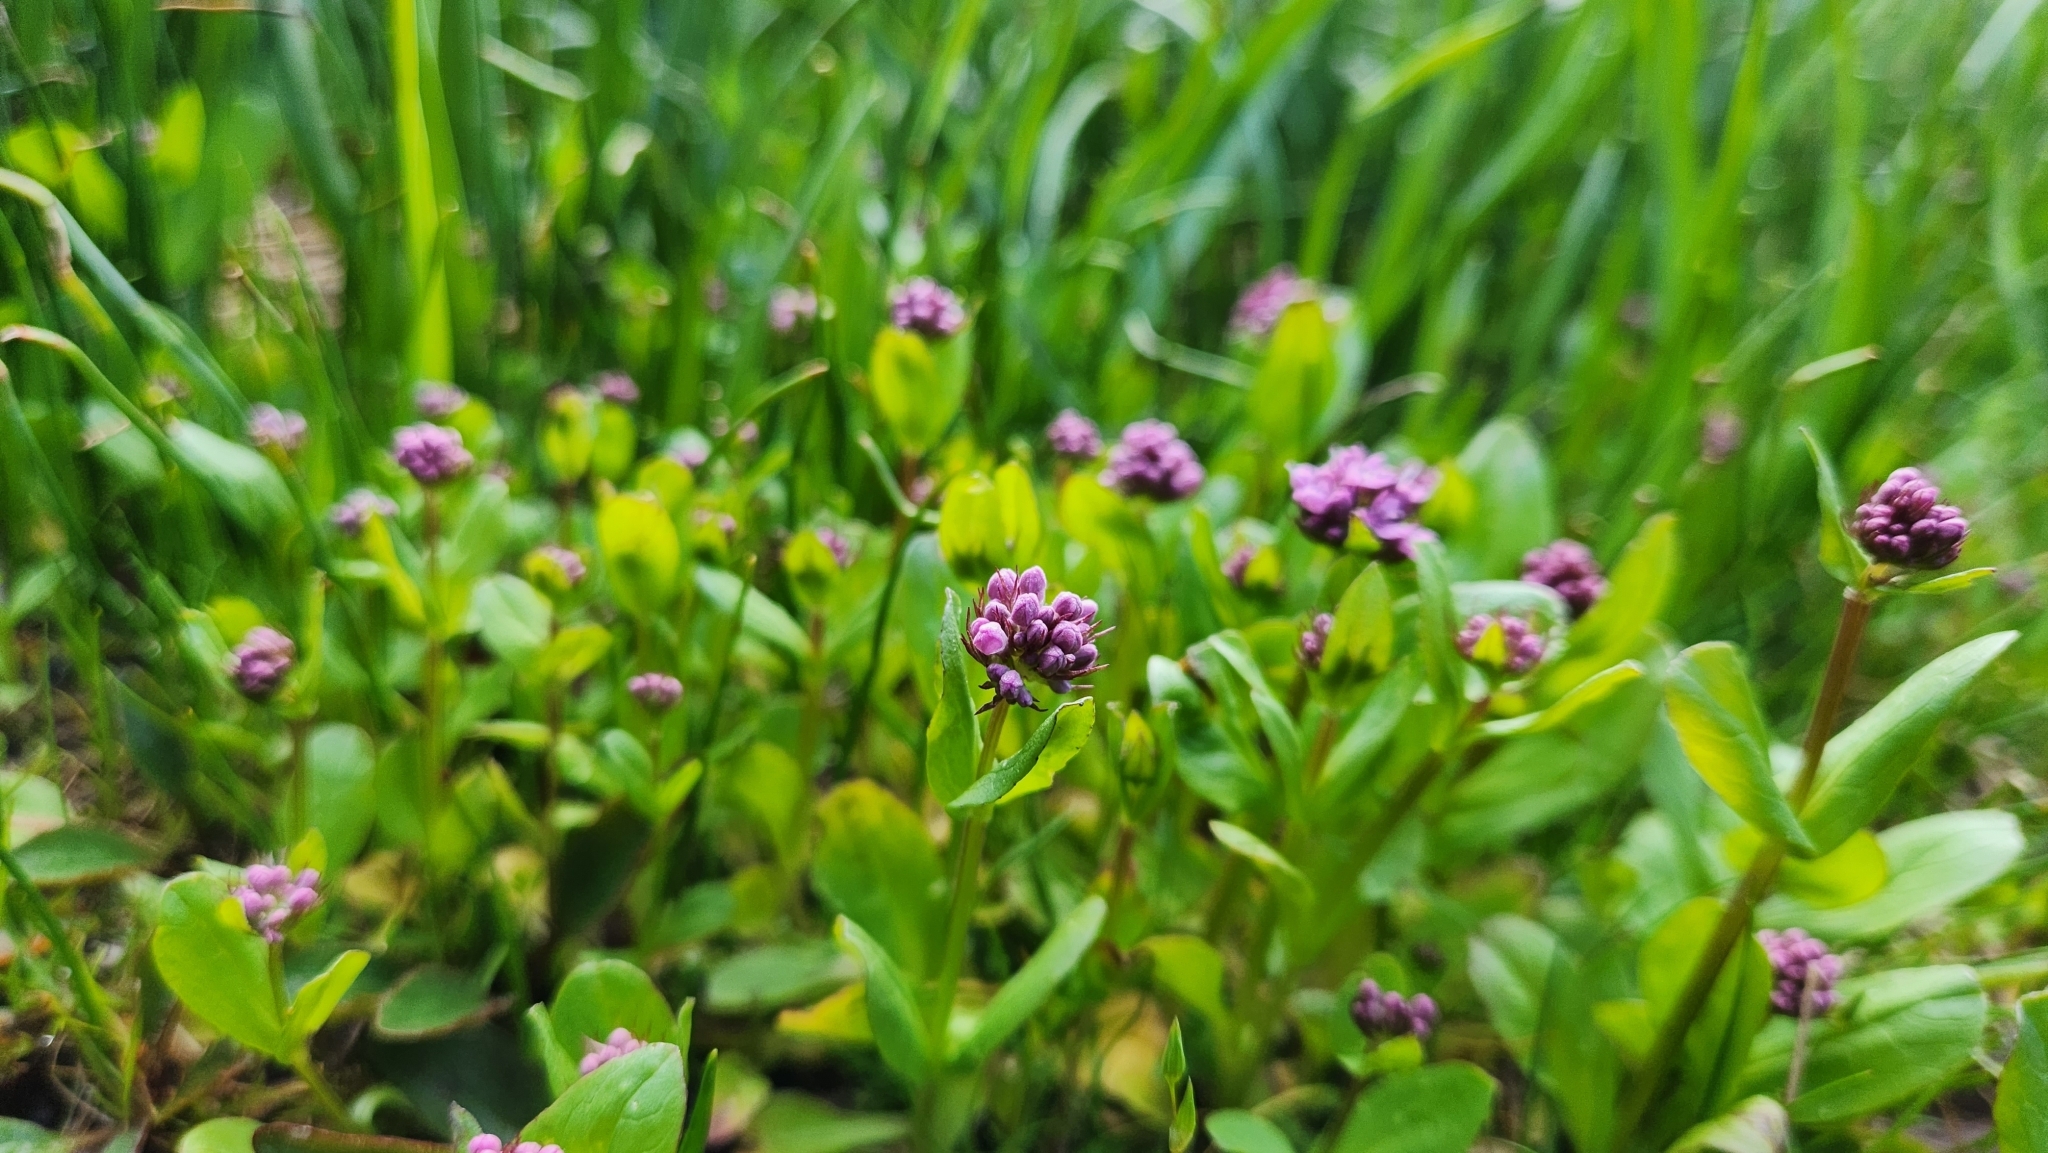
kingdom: Plantae
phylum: Tracheophyta
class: Magnoliopsida
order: Dipsacales
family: Caprifoliaceae
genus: Plectritis
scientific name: Plectritis congesta
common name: Pink plectritis
